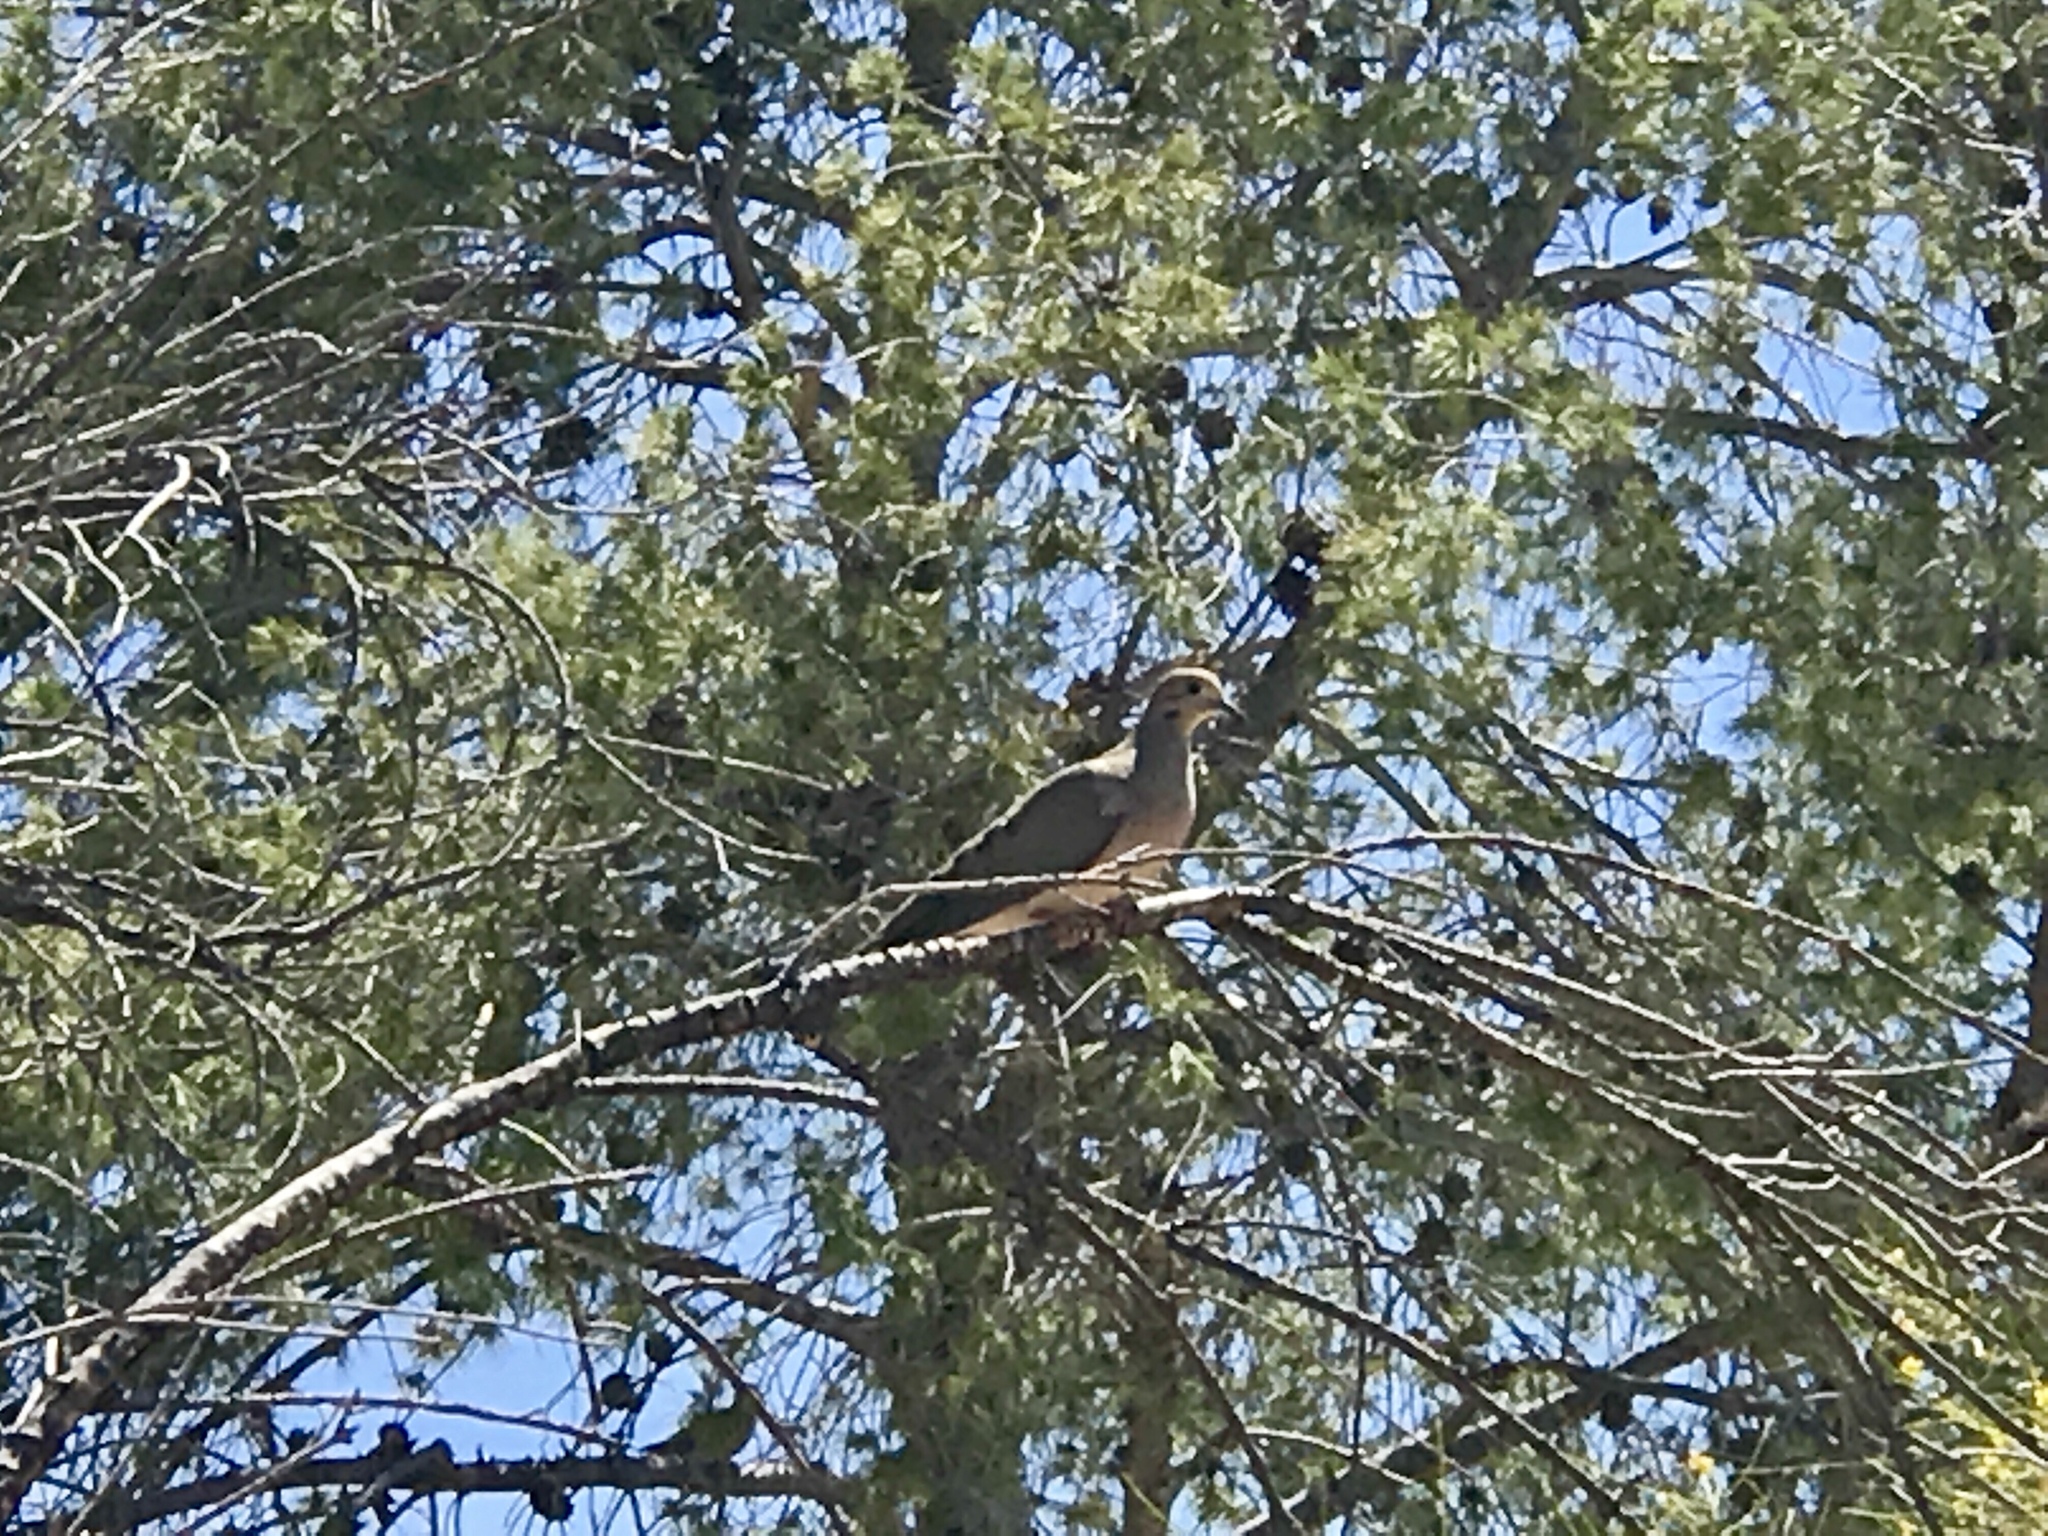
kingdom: Animalia
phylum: Chordata
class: Aves
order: Columbiformes
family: Columbidae
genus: Zenaida
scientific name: Zenaida macroura
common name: Mourning dove
